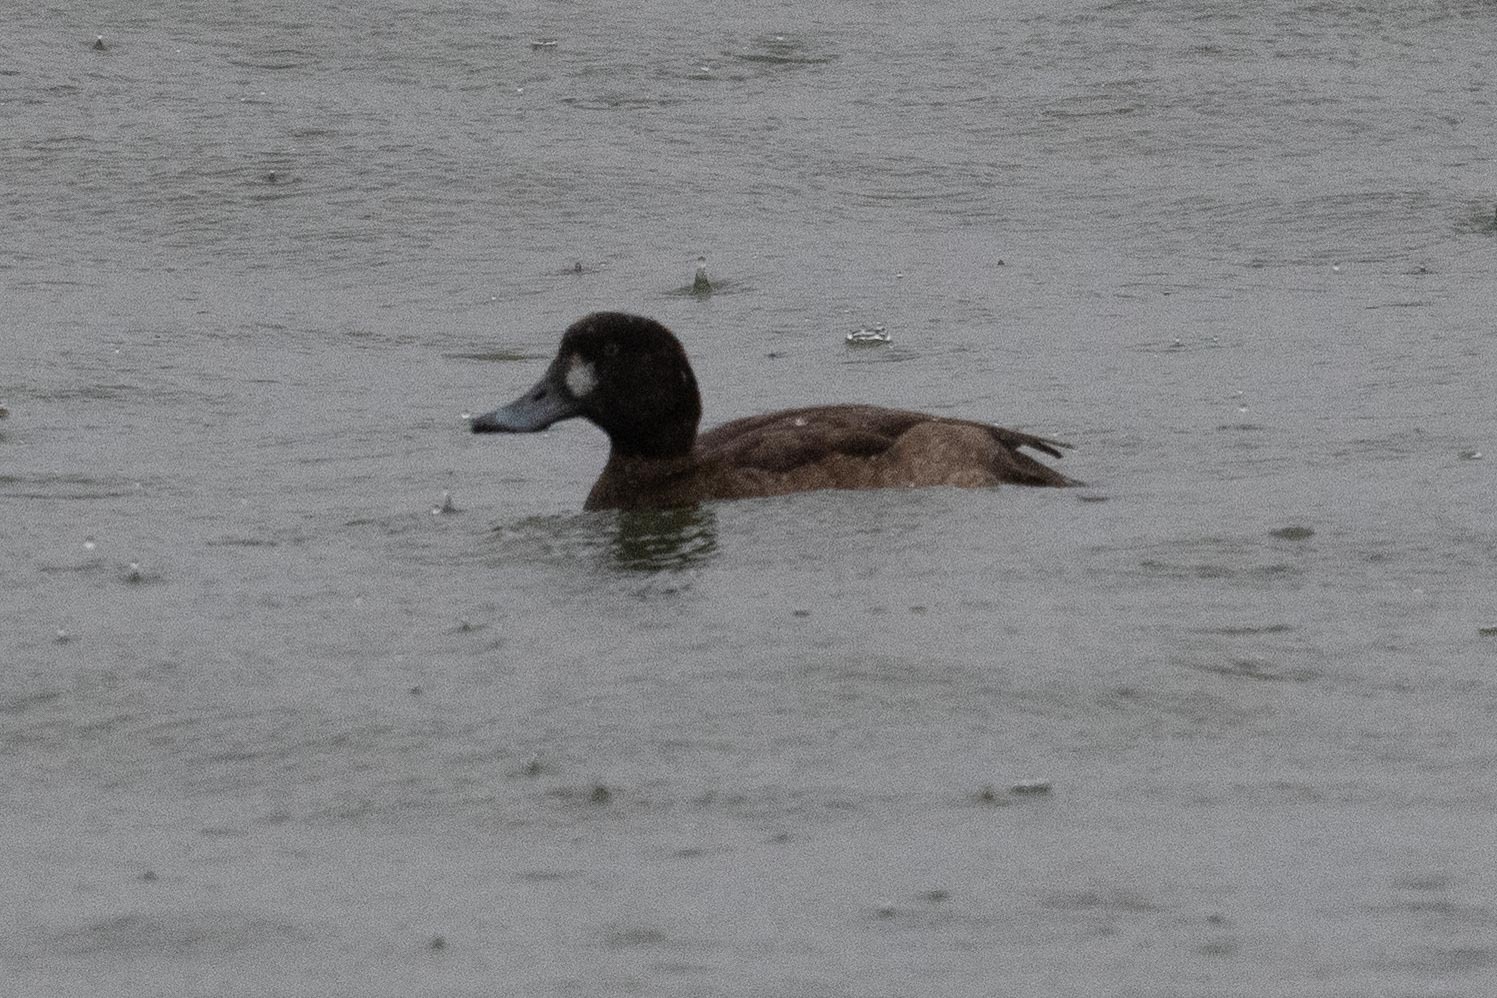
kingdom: Animalia
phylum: Chordata
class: Aves
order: Anseriformes
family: Anatidae
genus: Aythya
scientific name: Aythya marila
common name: Greater scaup
